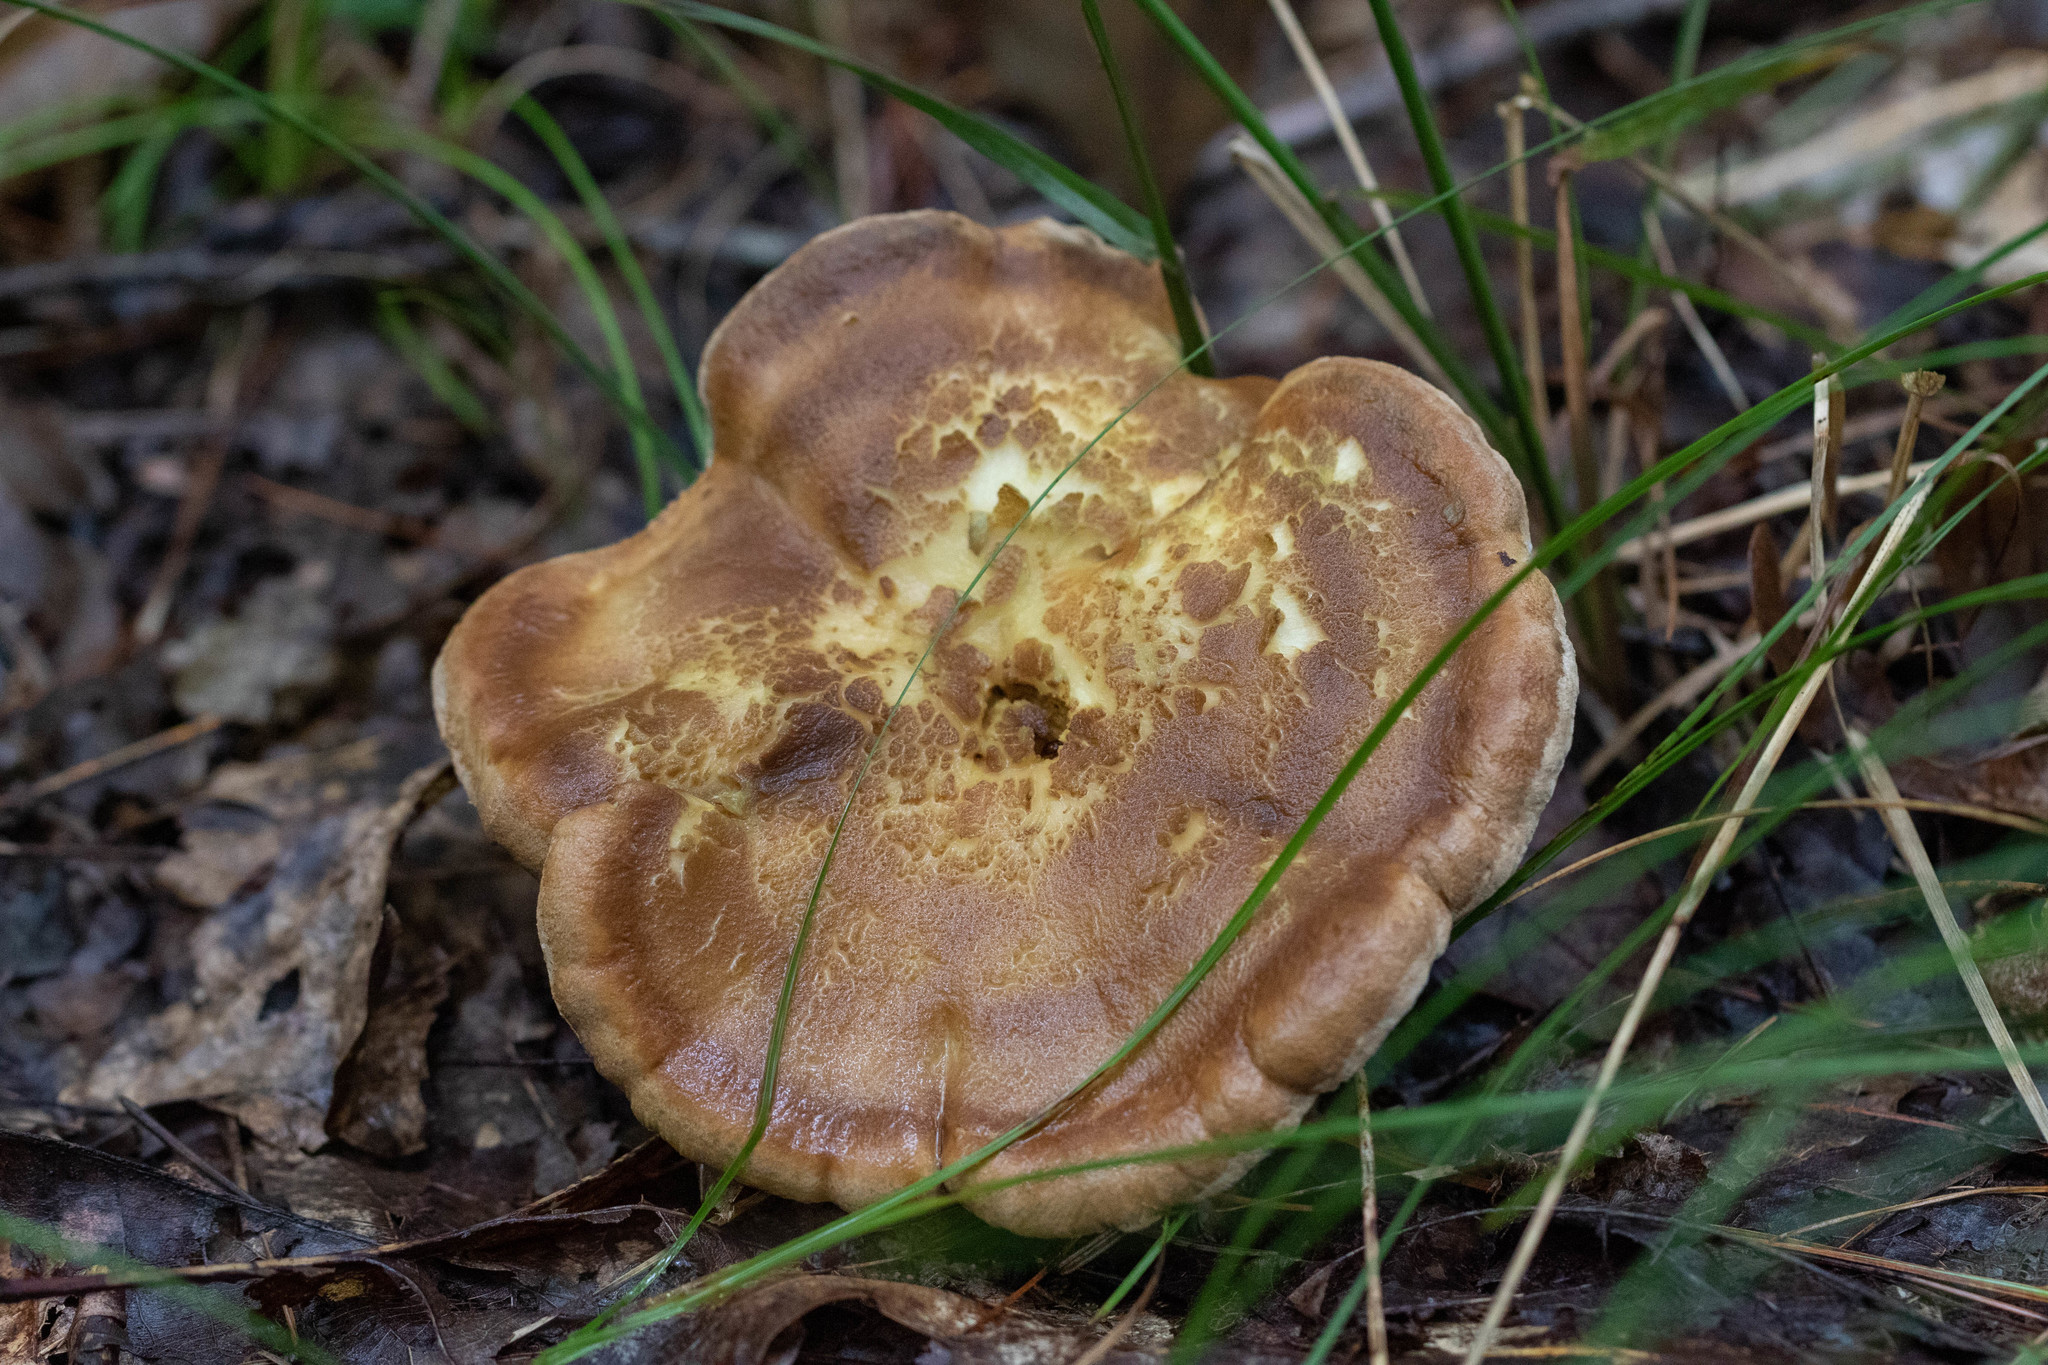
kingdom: Fungi
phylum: Basidiomycota
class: Agaricomycetes
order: Russulales
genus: Laeticutis
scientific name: Laeticutis cristata
